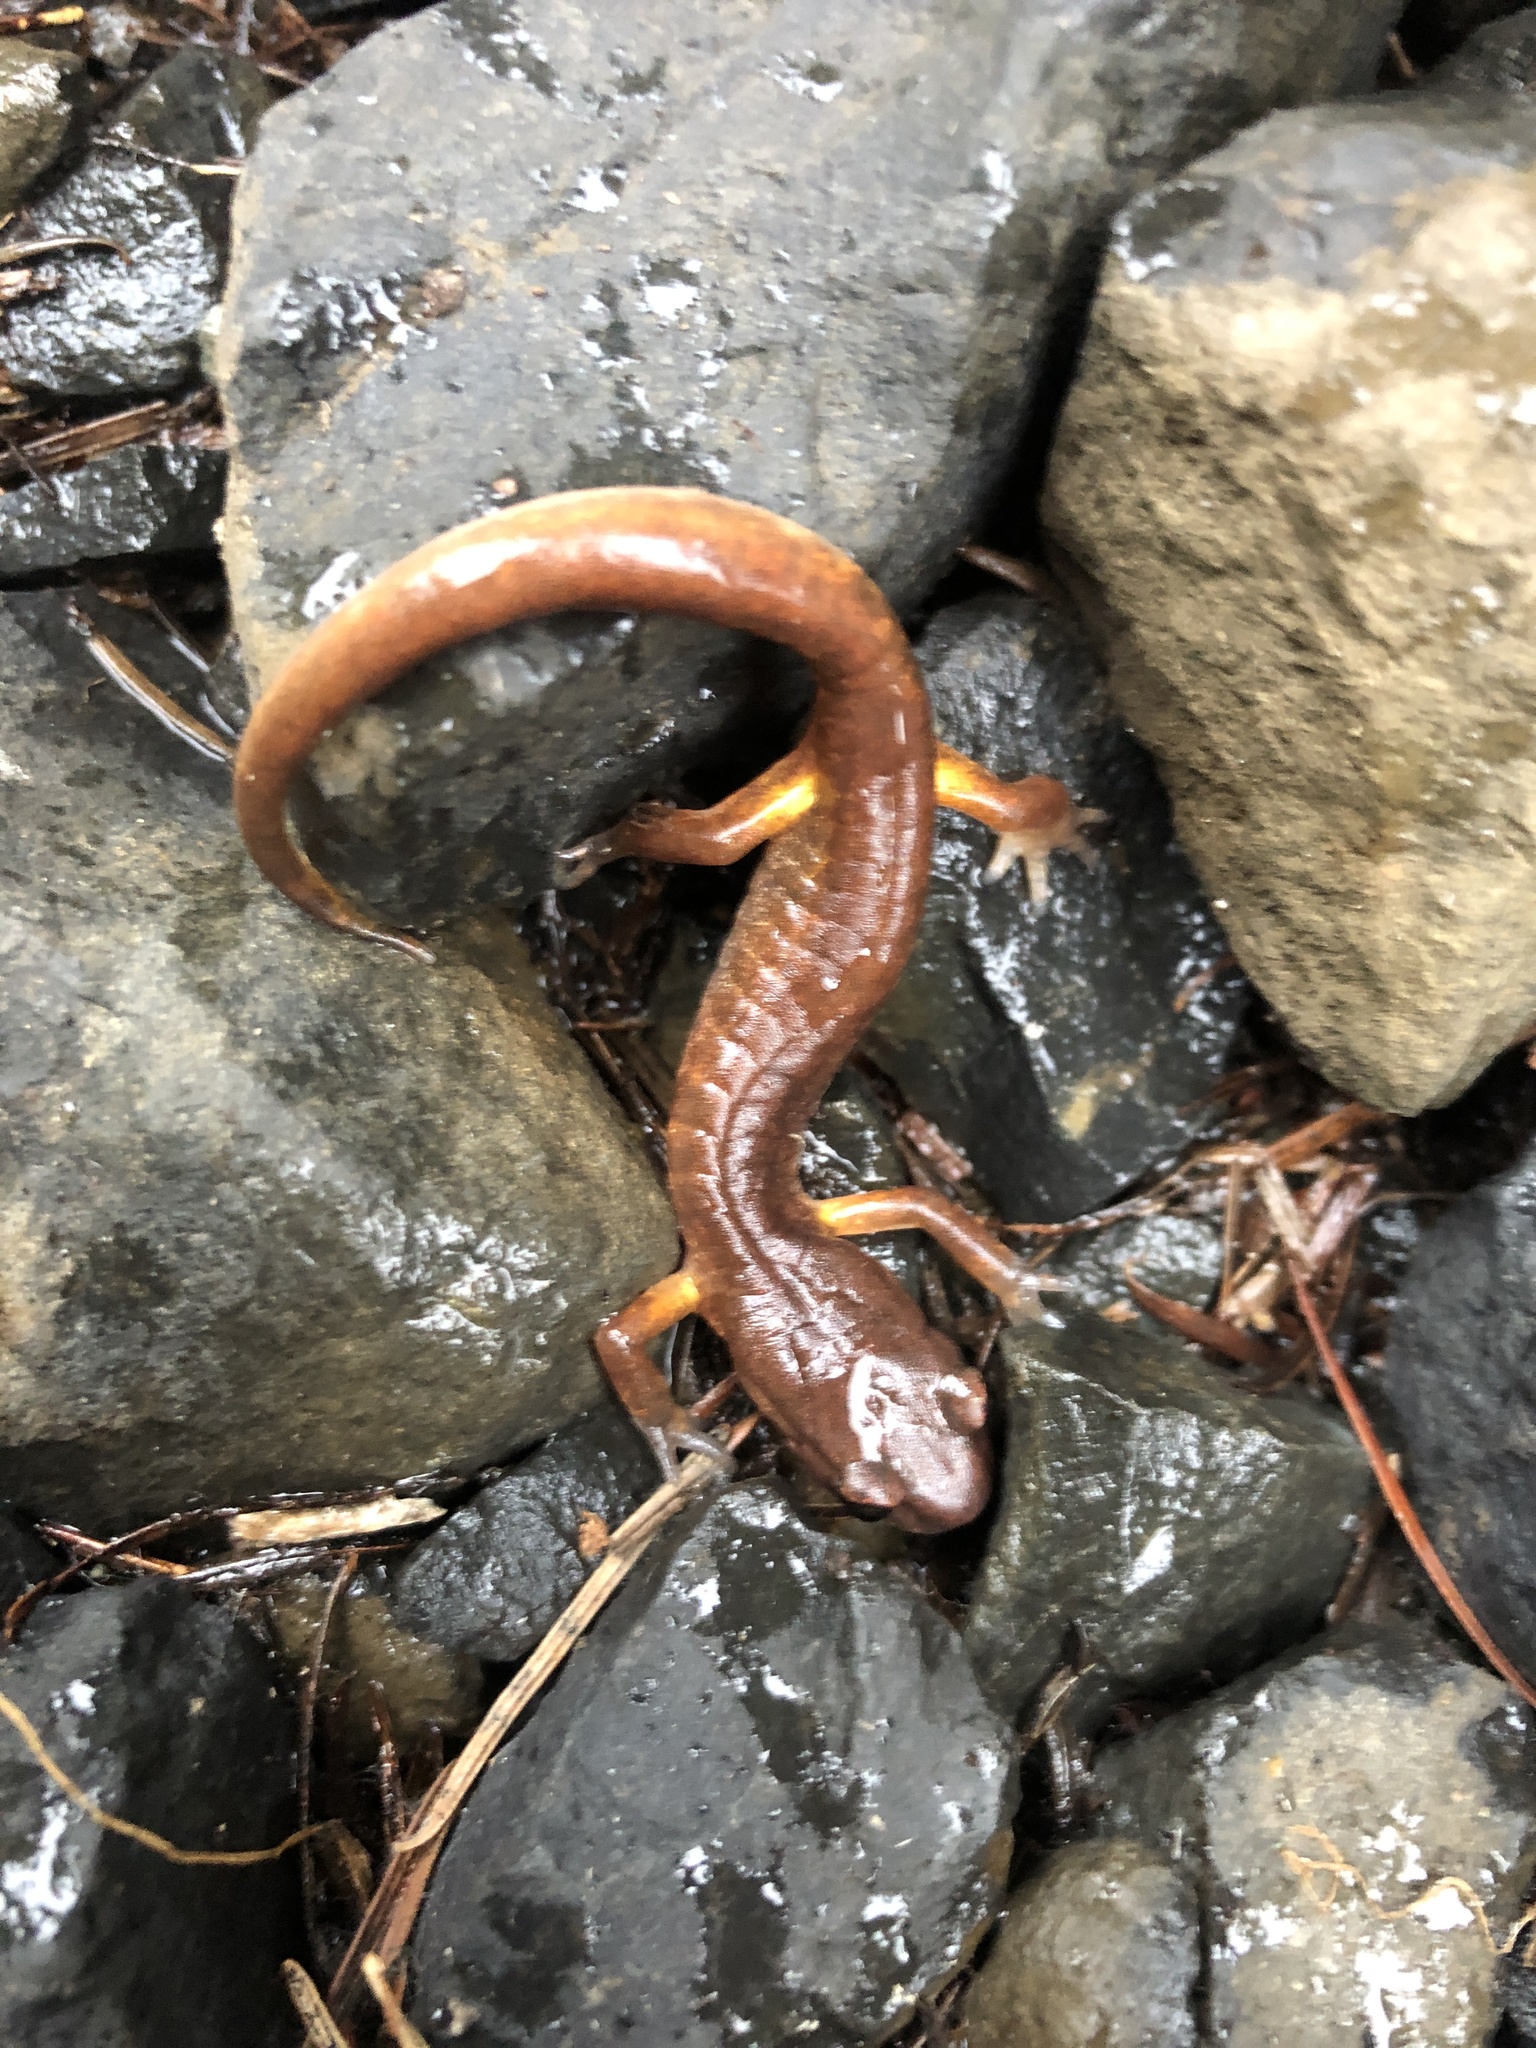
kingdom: Animalia
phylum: Chordata
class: Amphibia
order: Caudata
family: Plethodontidae
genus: Ensatina
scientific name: Ensatina eschscholtzii
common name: Ensatina
